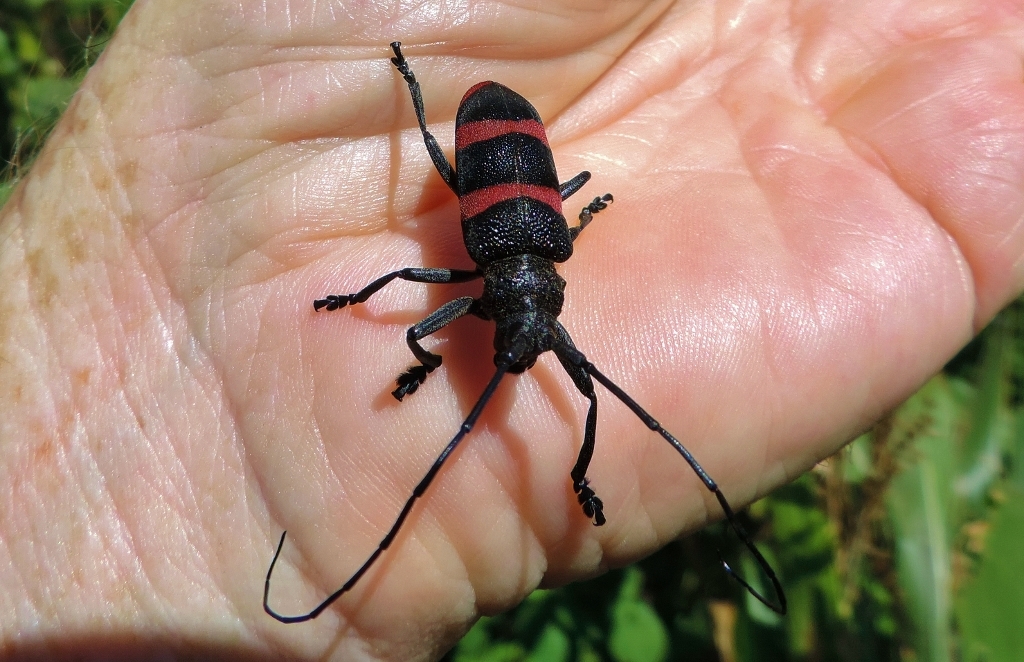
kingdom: Animalia
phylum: Arthropoda
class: Insecta
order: Coleoptera
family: Cerambycidae
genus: Ceroplesis
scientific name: Ceroplesis orientalis
